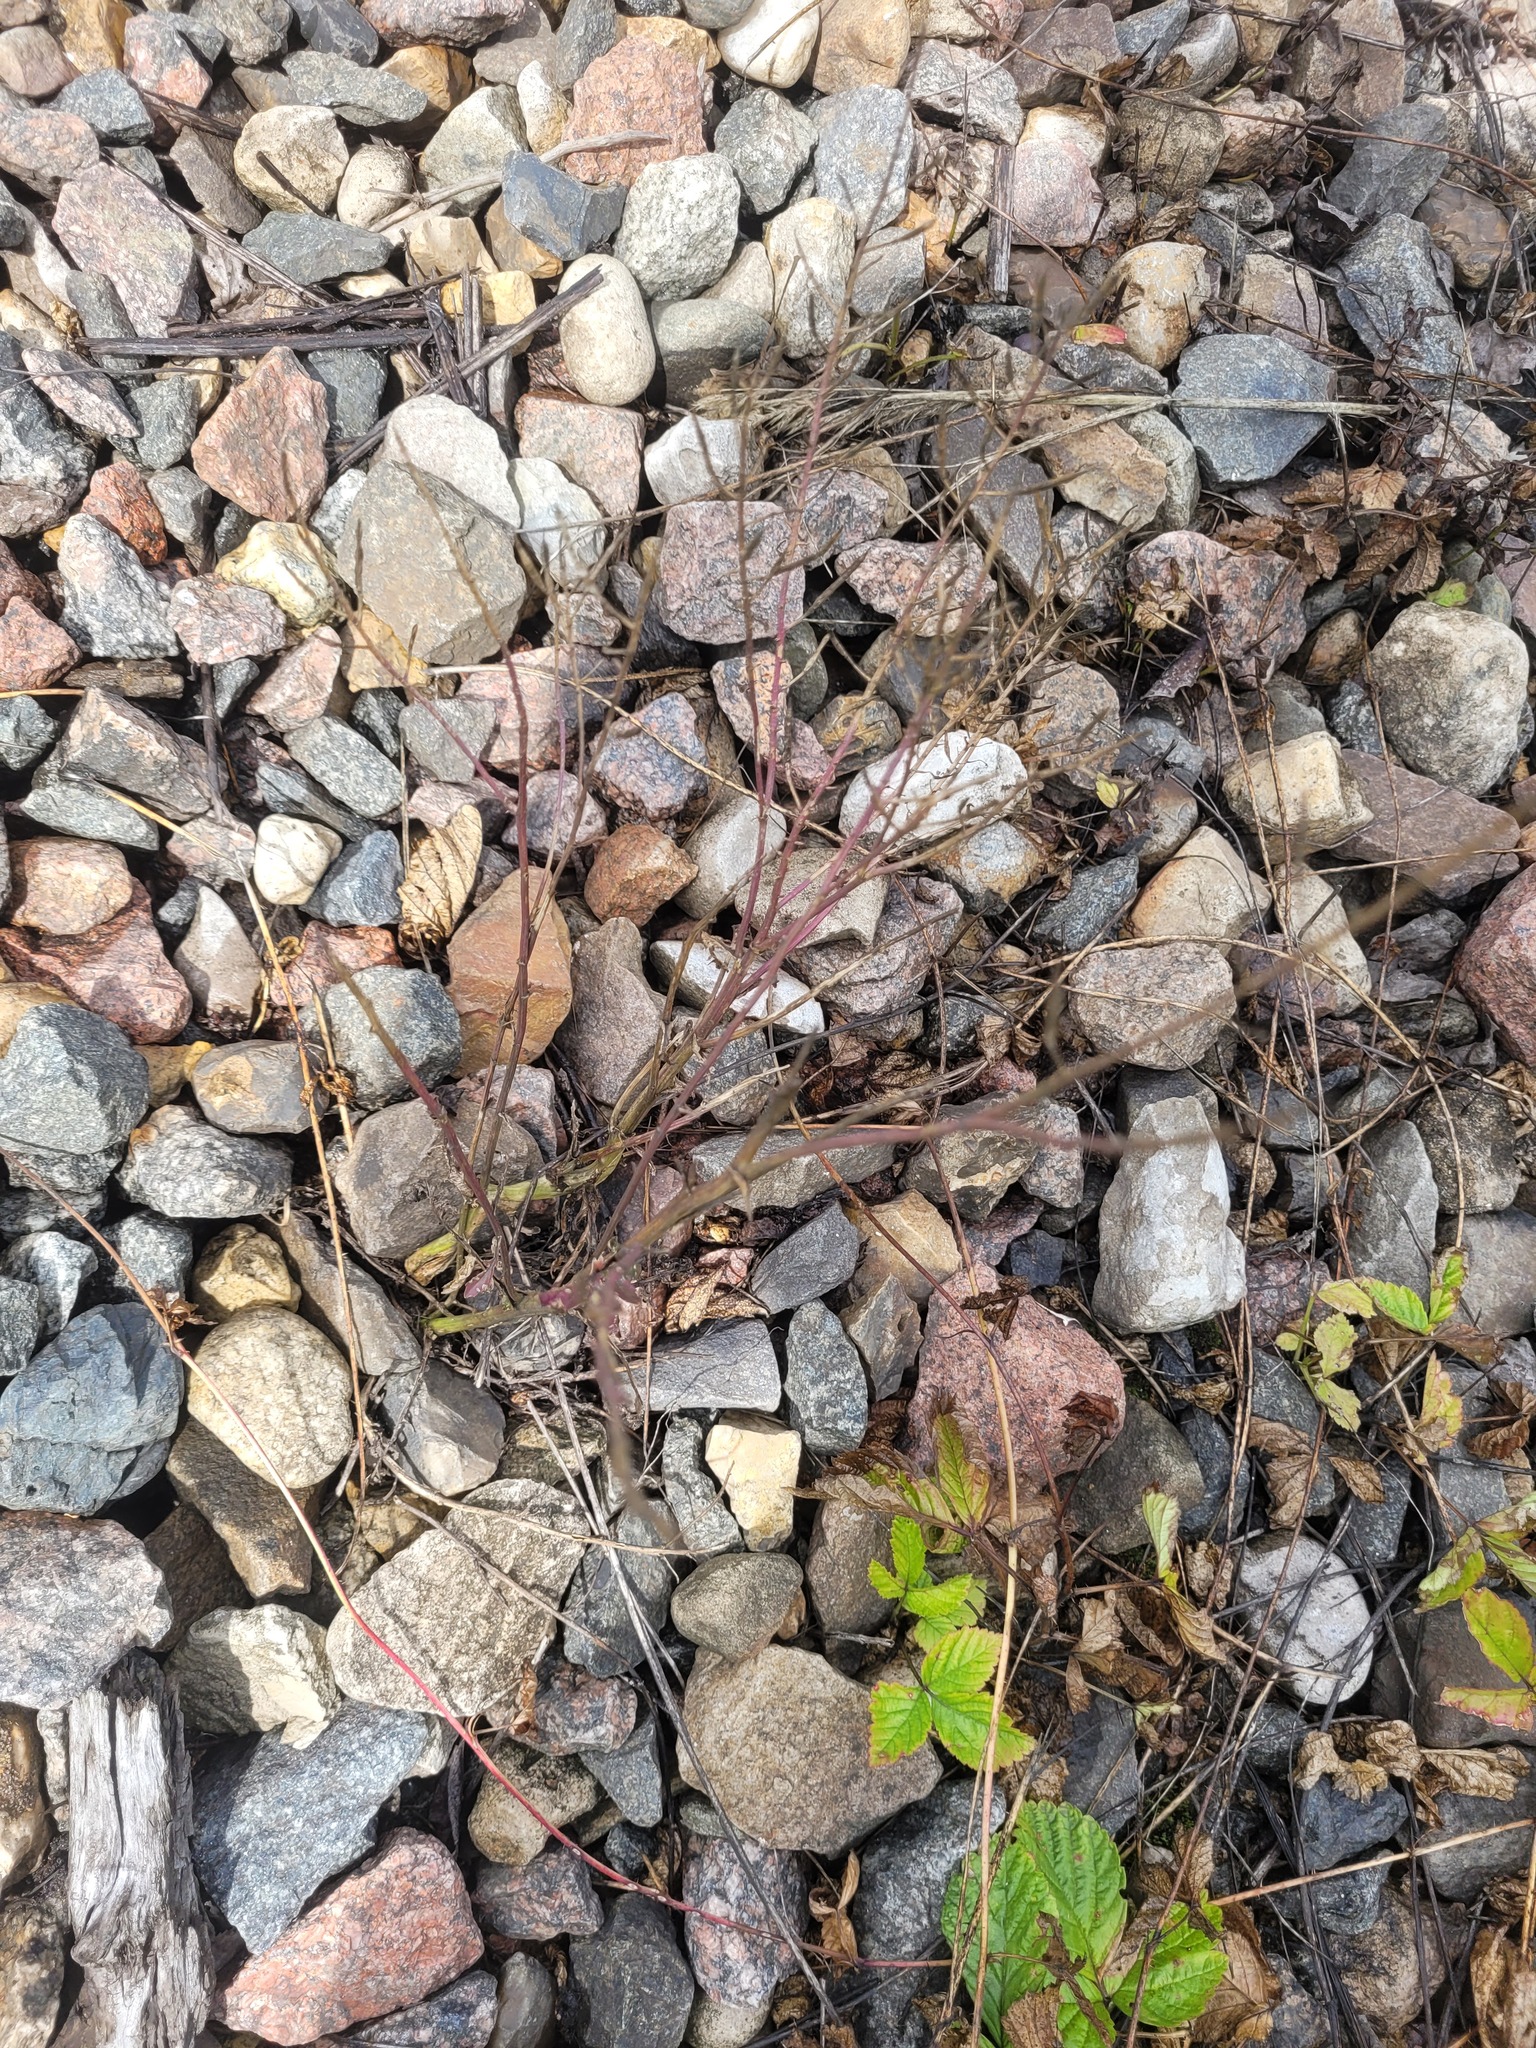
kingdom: Plantae
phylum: Tracheophyta
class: Magnoliopsida
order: Brassicales
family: Brassicaceae
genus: Barbarea
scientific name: Barbarea vulgaris
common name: Cressy-greens
